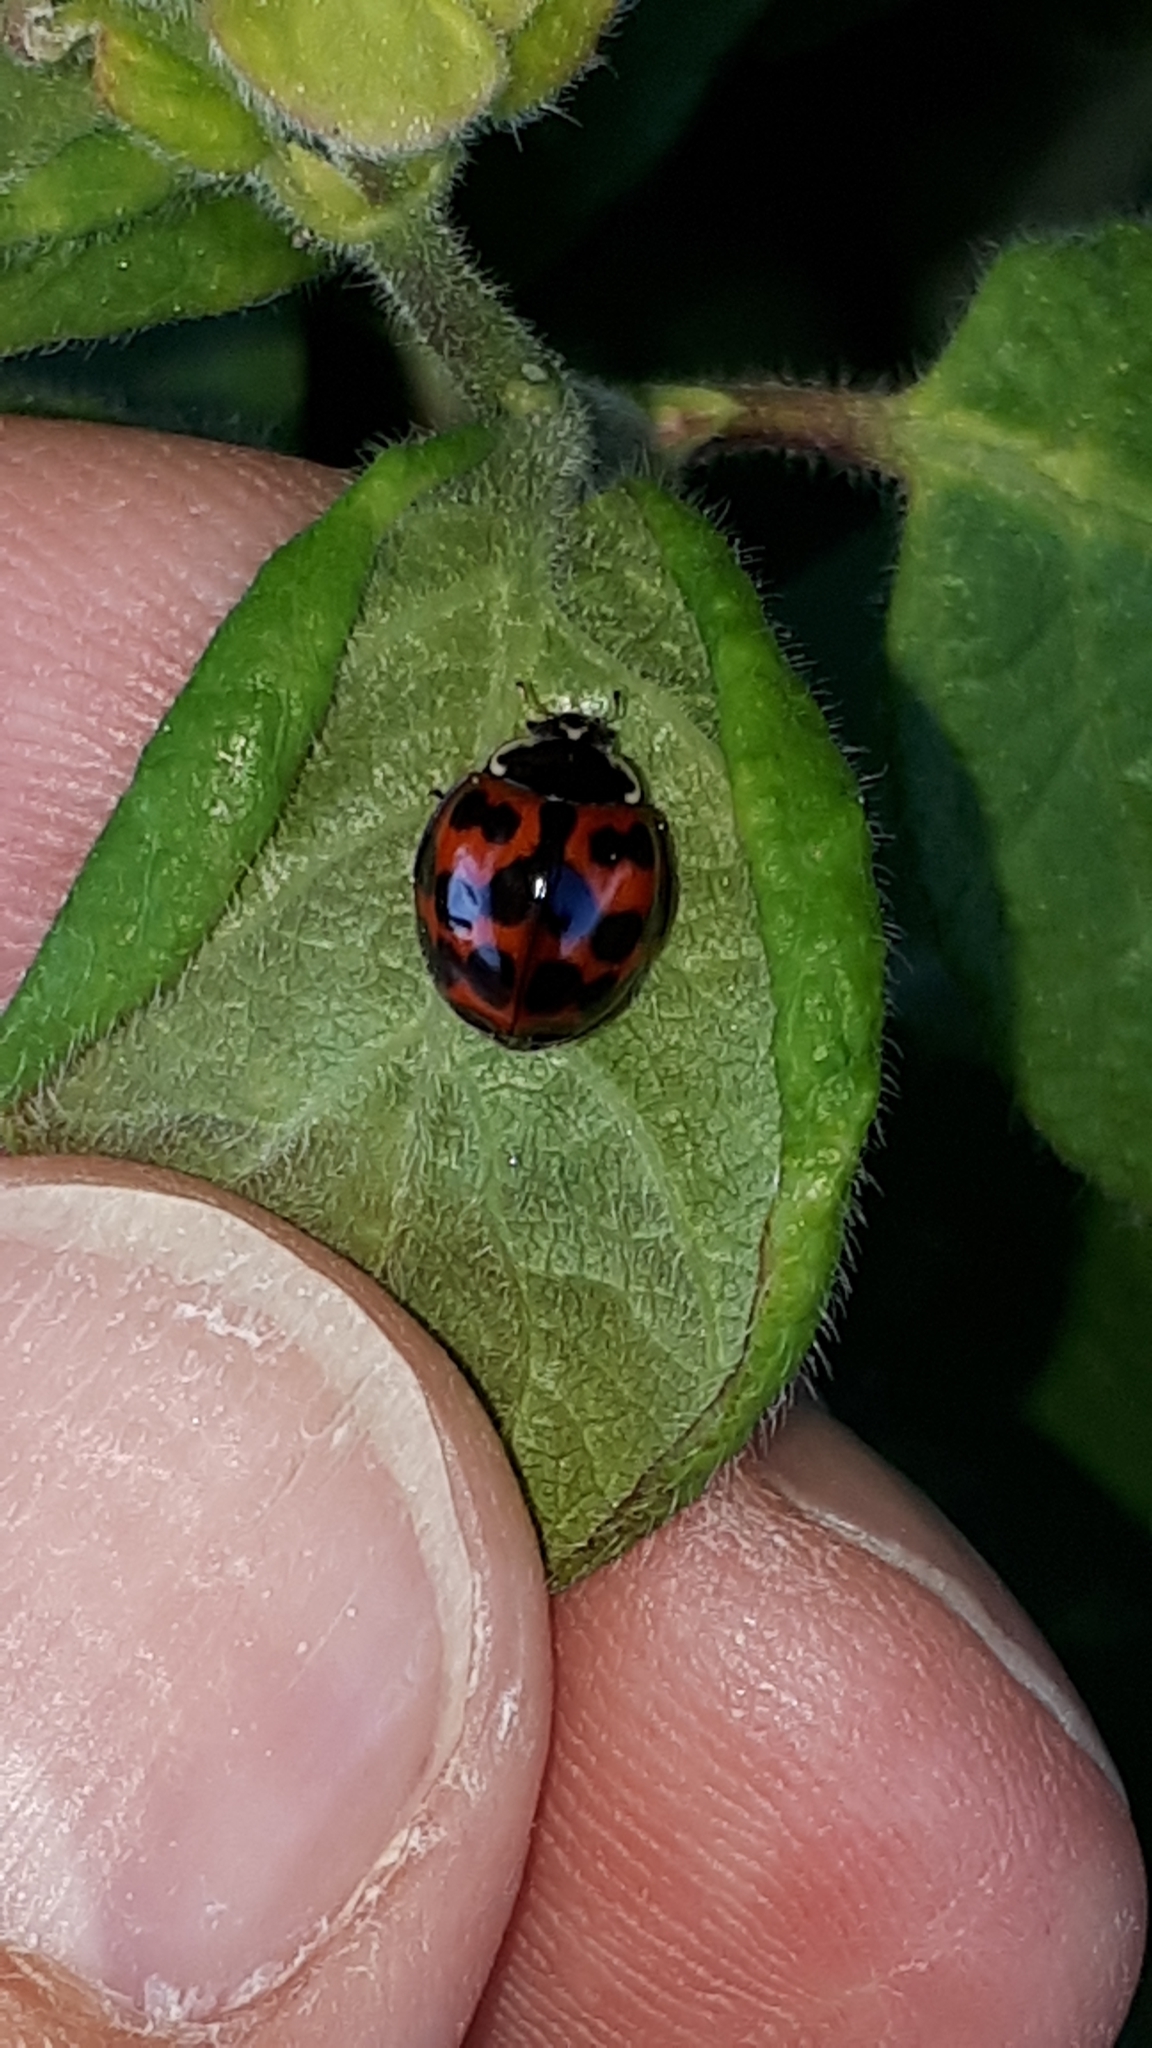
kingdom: Animalia
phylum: Arthropoda
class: Insecta
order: Coleoptera
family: Coccinellidae
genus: Harmonia
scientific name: Harmonia axyridis
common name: Harlequin ladybird
